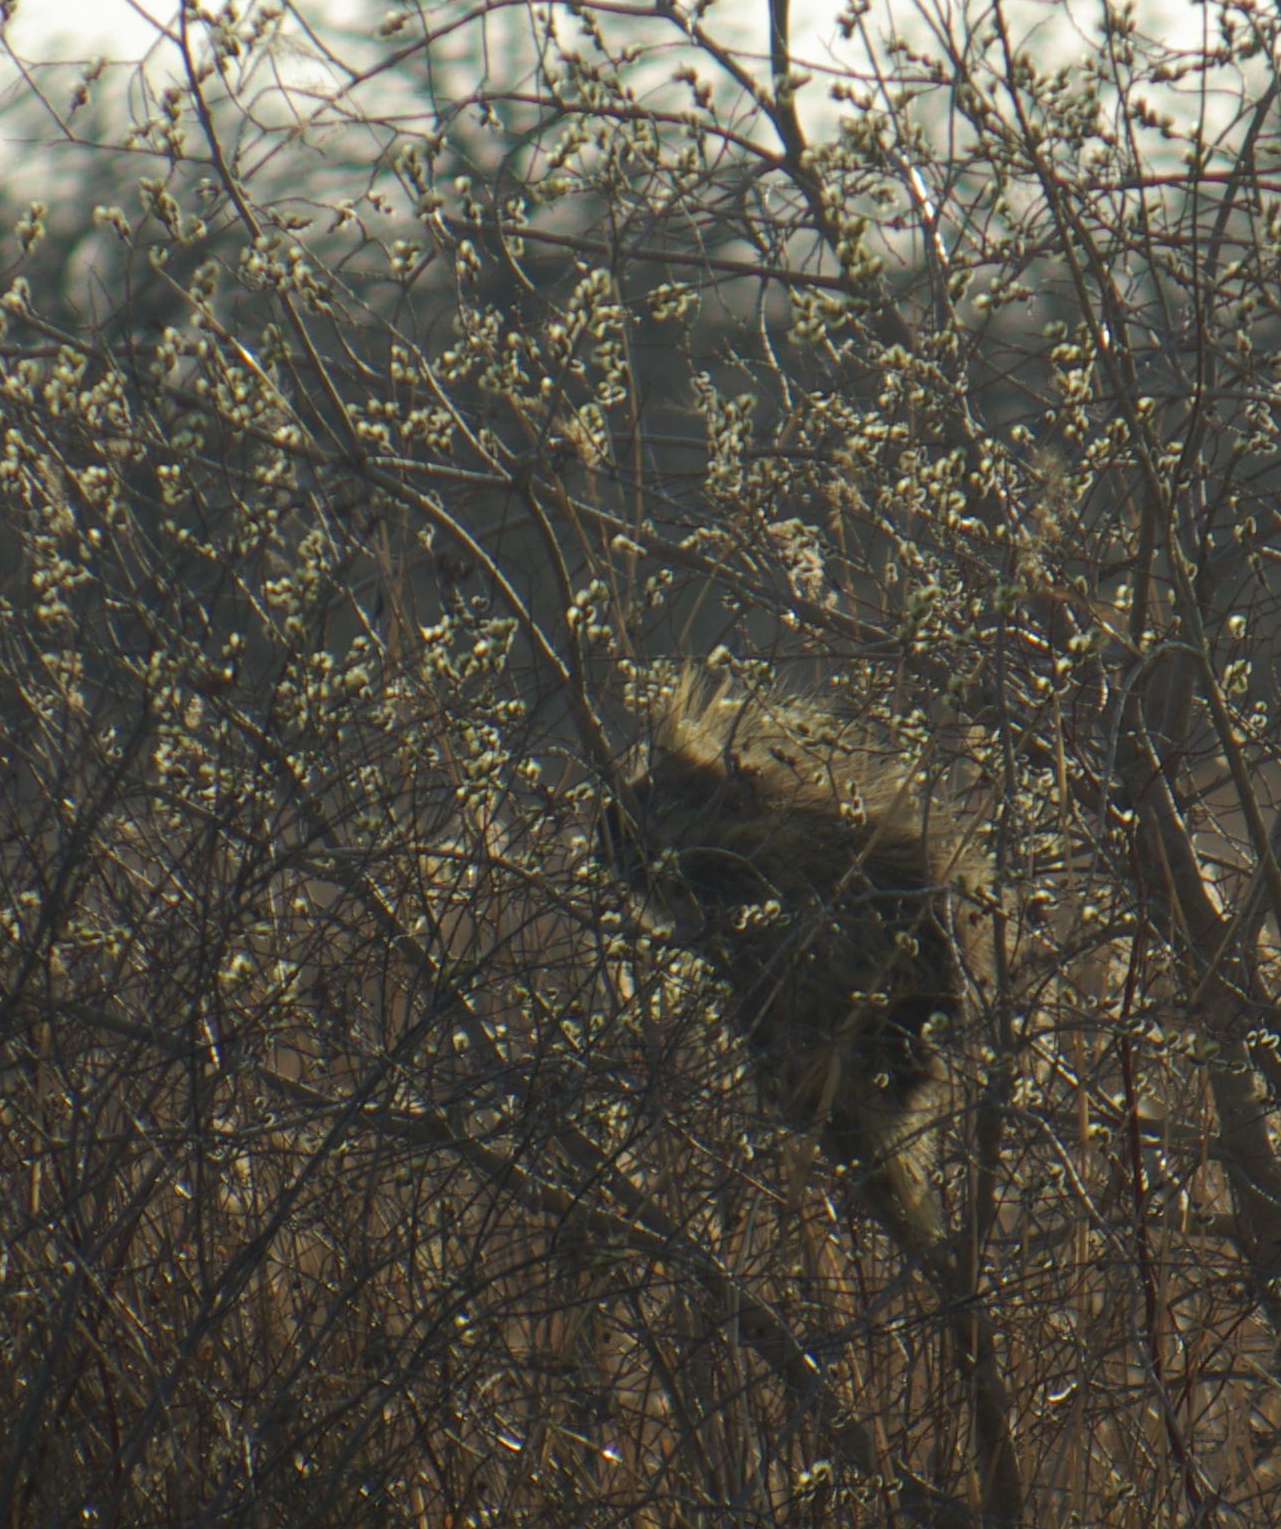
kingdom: Animalia
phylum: Chordata
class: Mammalia
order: Rodentia
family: Erethizontidae
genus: Erethizon
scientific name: Erethizon dorsatus
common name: North american porcupine
